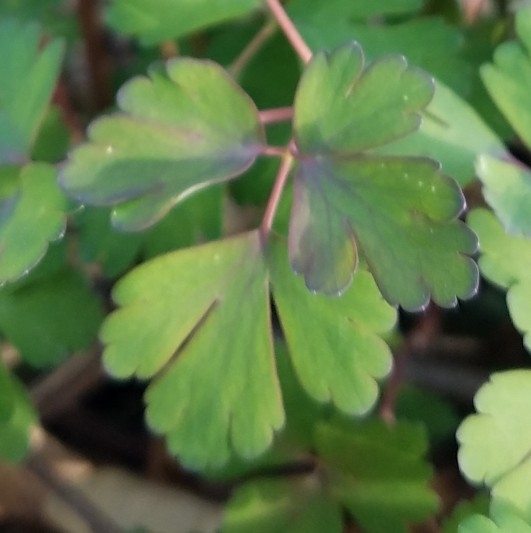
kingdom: Plantae
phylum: Tracheophyta
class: Magnoliopsida
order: Ranunculales
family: Ranunculaceae
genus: Aquilegia
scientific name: Aquilegia canadensis
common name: American columbine
